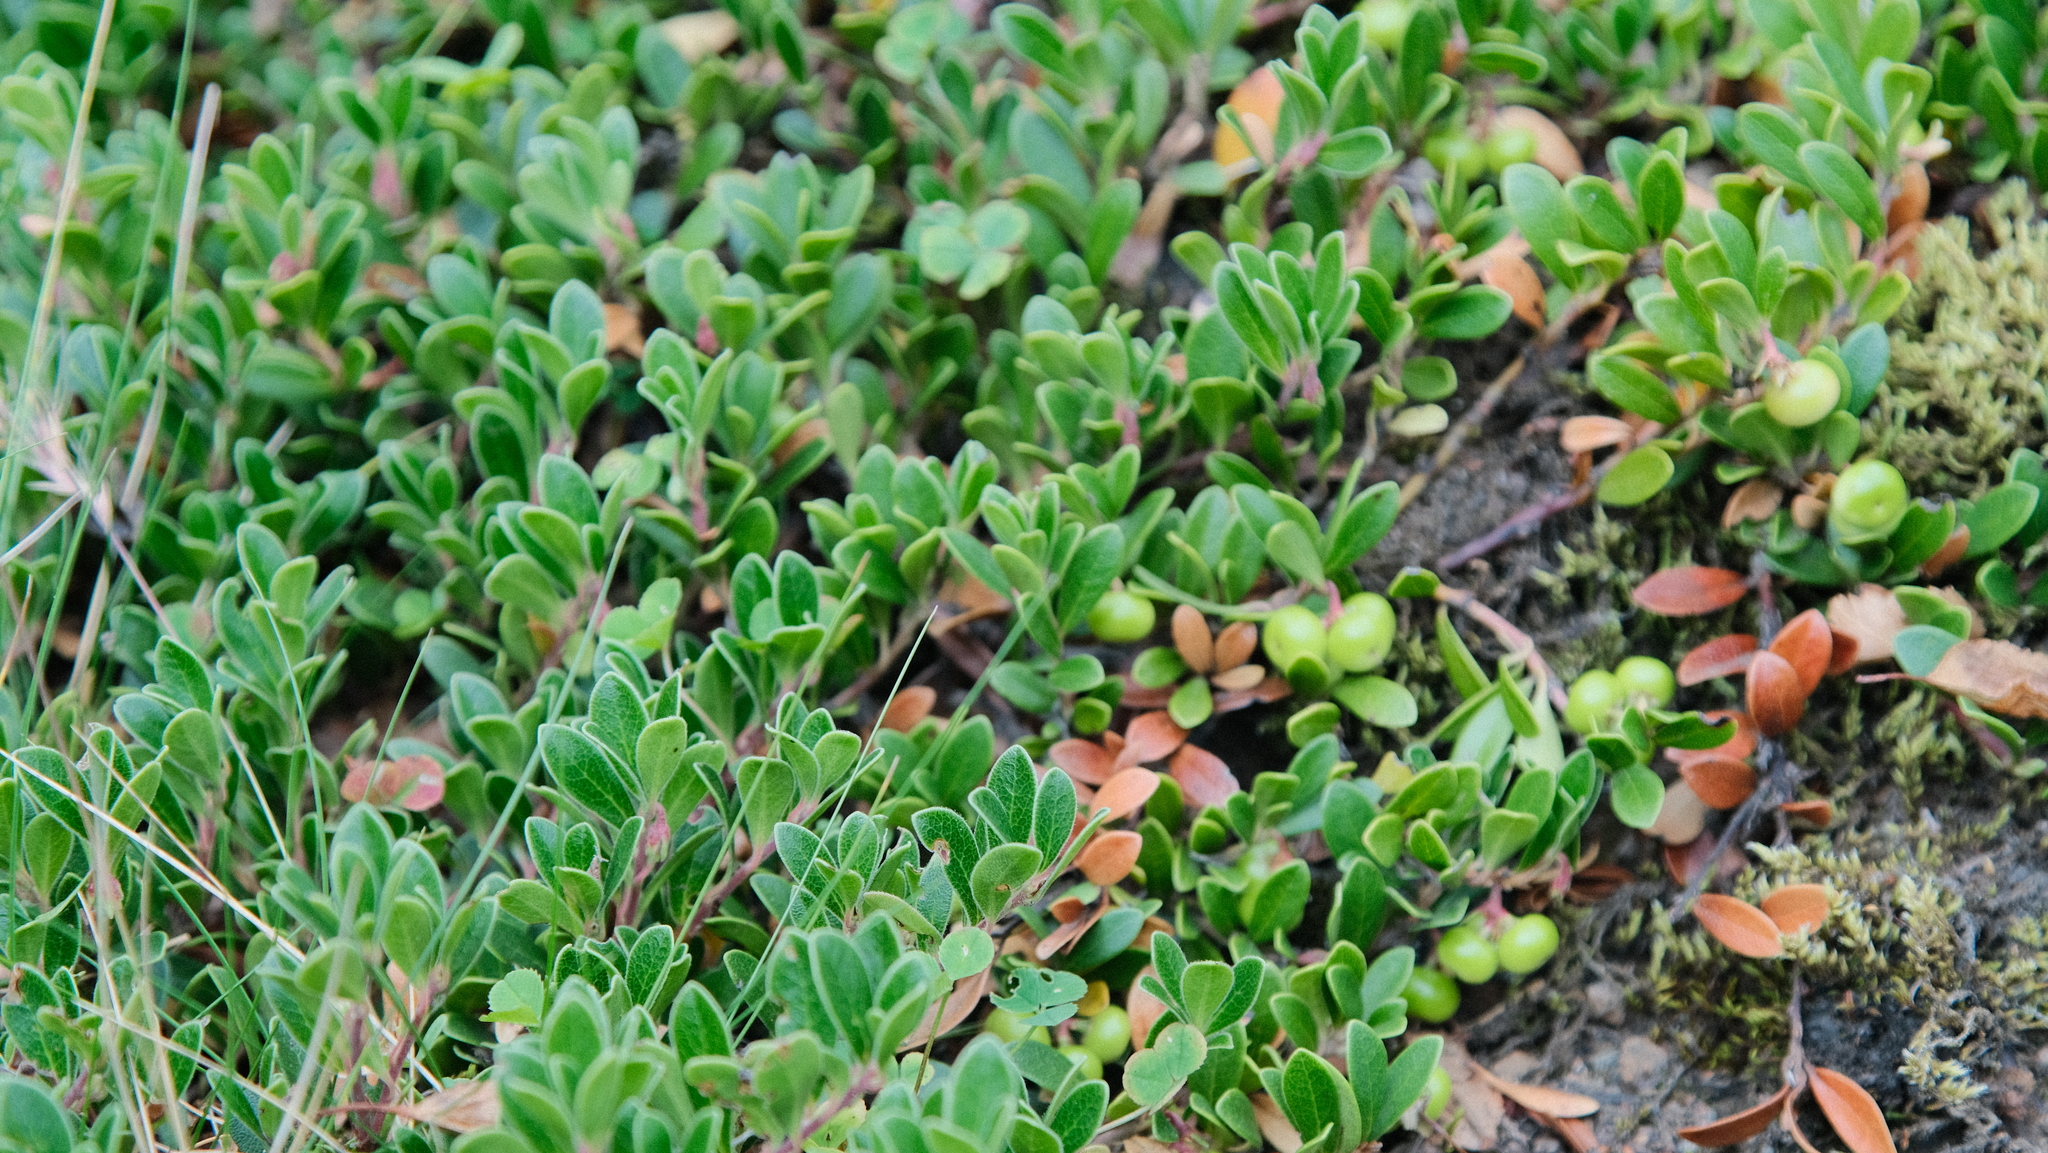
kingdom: Plantae
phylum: Tracheophyta
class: Magnoliopsida
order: Ericales
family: Ericaceae
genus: Arctostaphylos
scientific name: Arctostaphylos uva-ursi
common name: Bearberry
